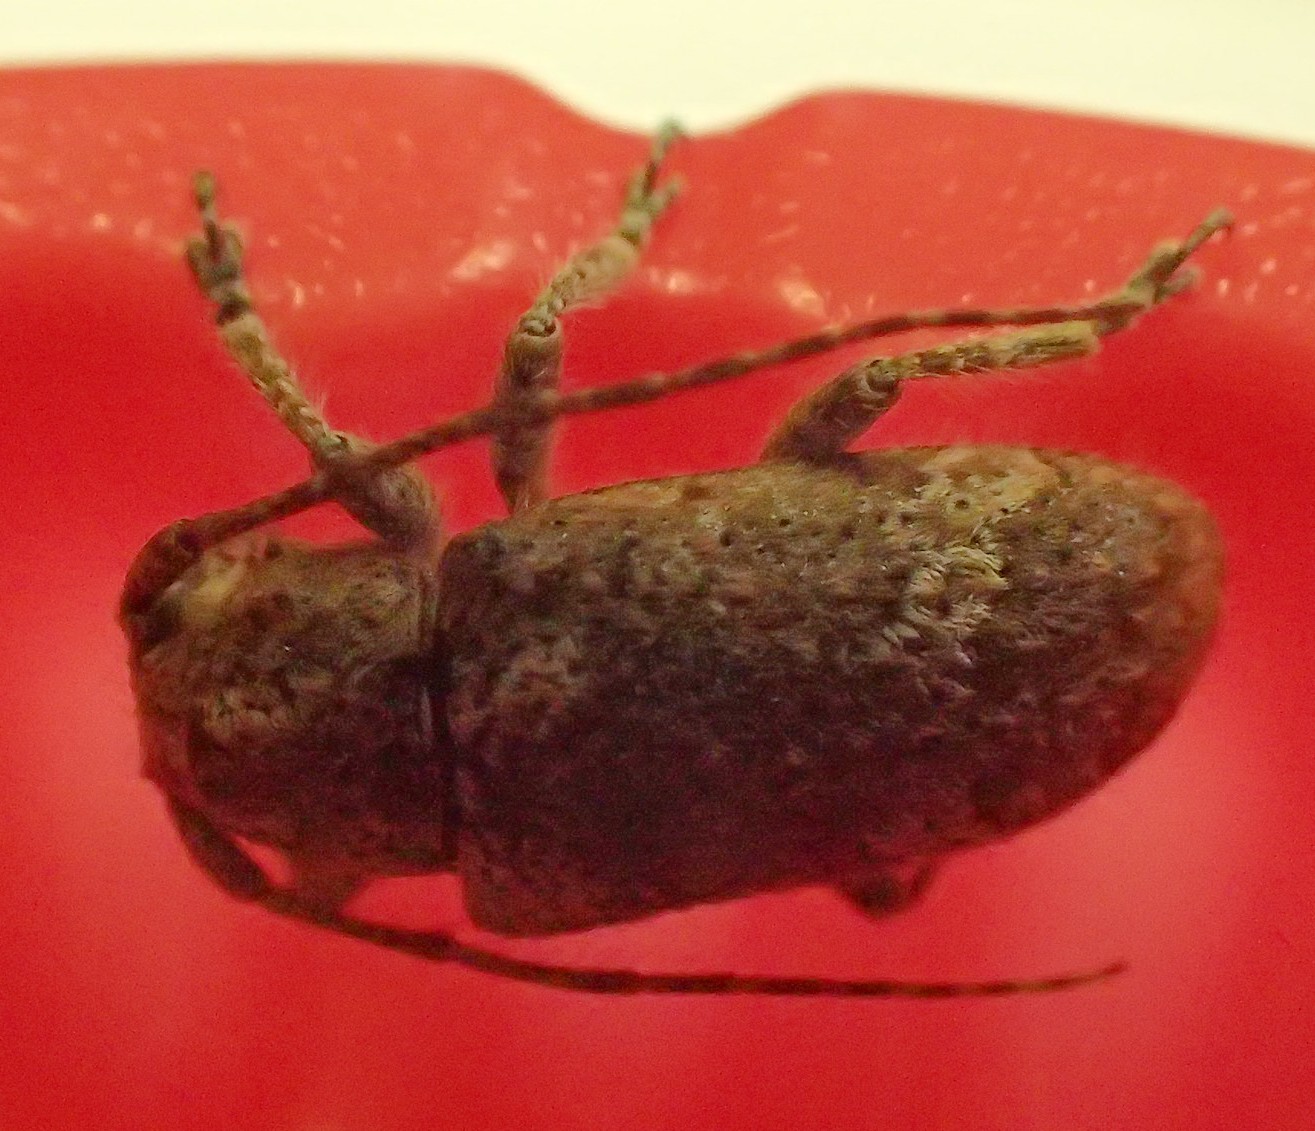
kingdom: Animalia
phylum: Arthropoda
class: Insecta
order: Coleoptera
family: Cerambycidae
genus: Rhytiphora
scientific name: Rhytiphora bankii
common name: Prosoplus long horned beetle
